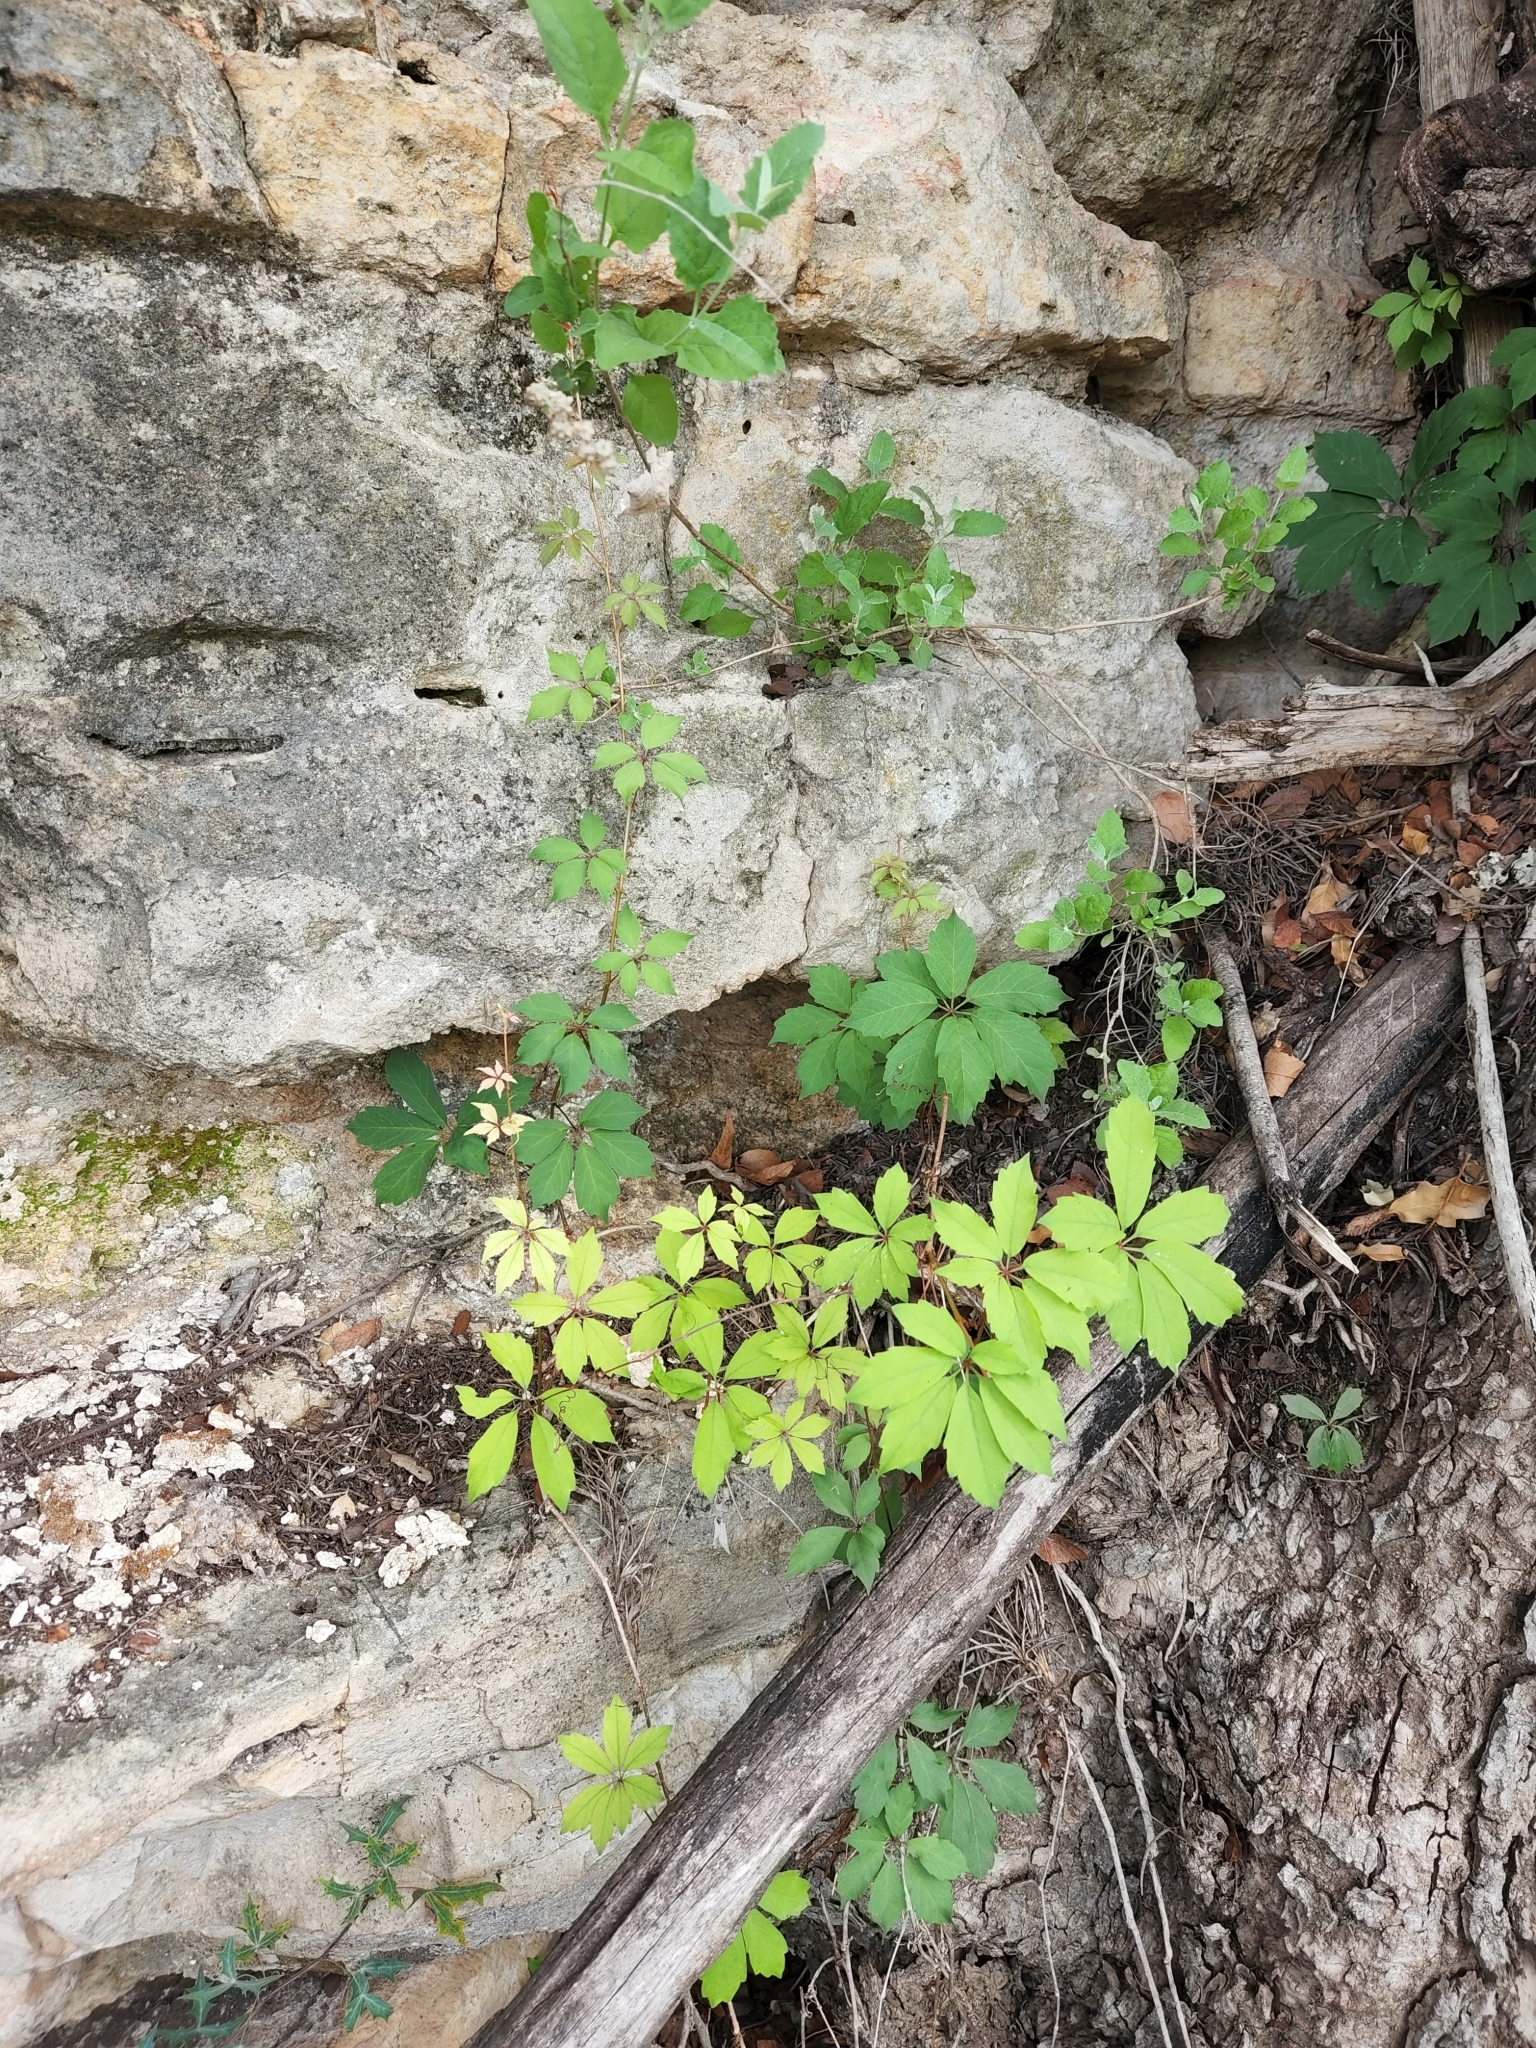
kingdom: Plantae
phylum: Tracheophyta
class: Magnoliopsida
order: Vitales
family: Vitaceae
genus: Parthenocissus
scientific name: Parthenocissus heptaphylla
